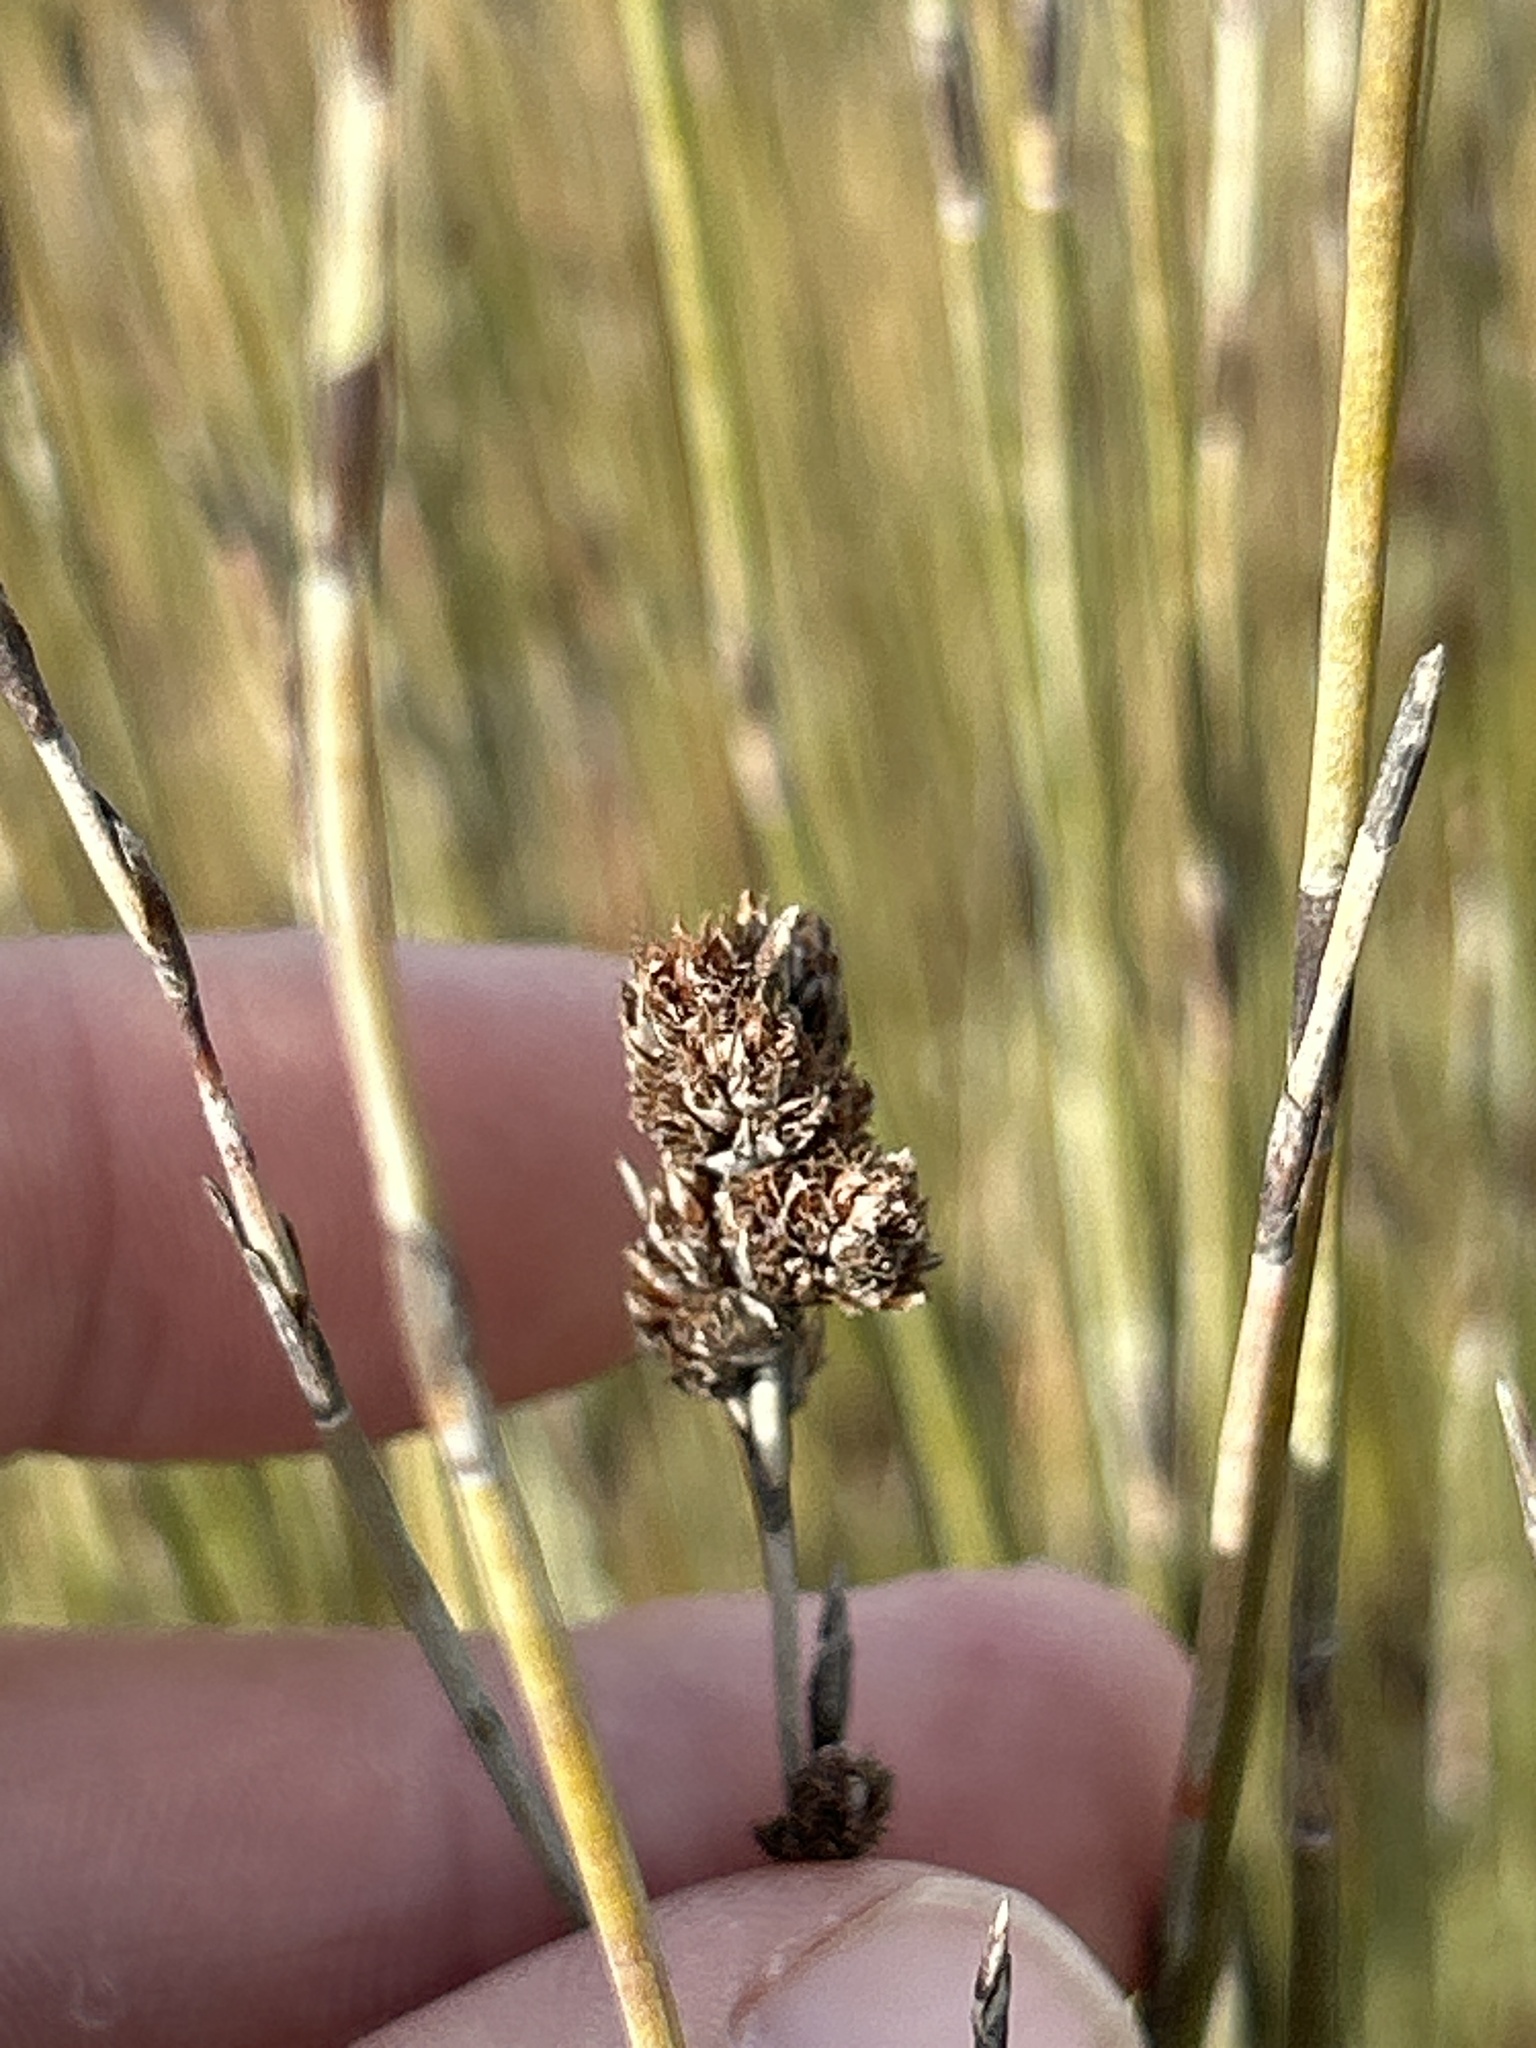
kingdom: Plantae
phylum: Tracheophyta
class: Liliopsida
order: Poales
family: Restionaceae
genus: Apodasmia
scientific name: Apodasmia similis
